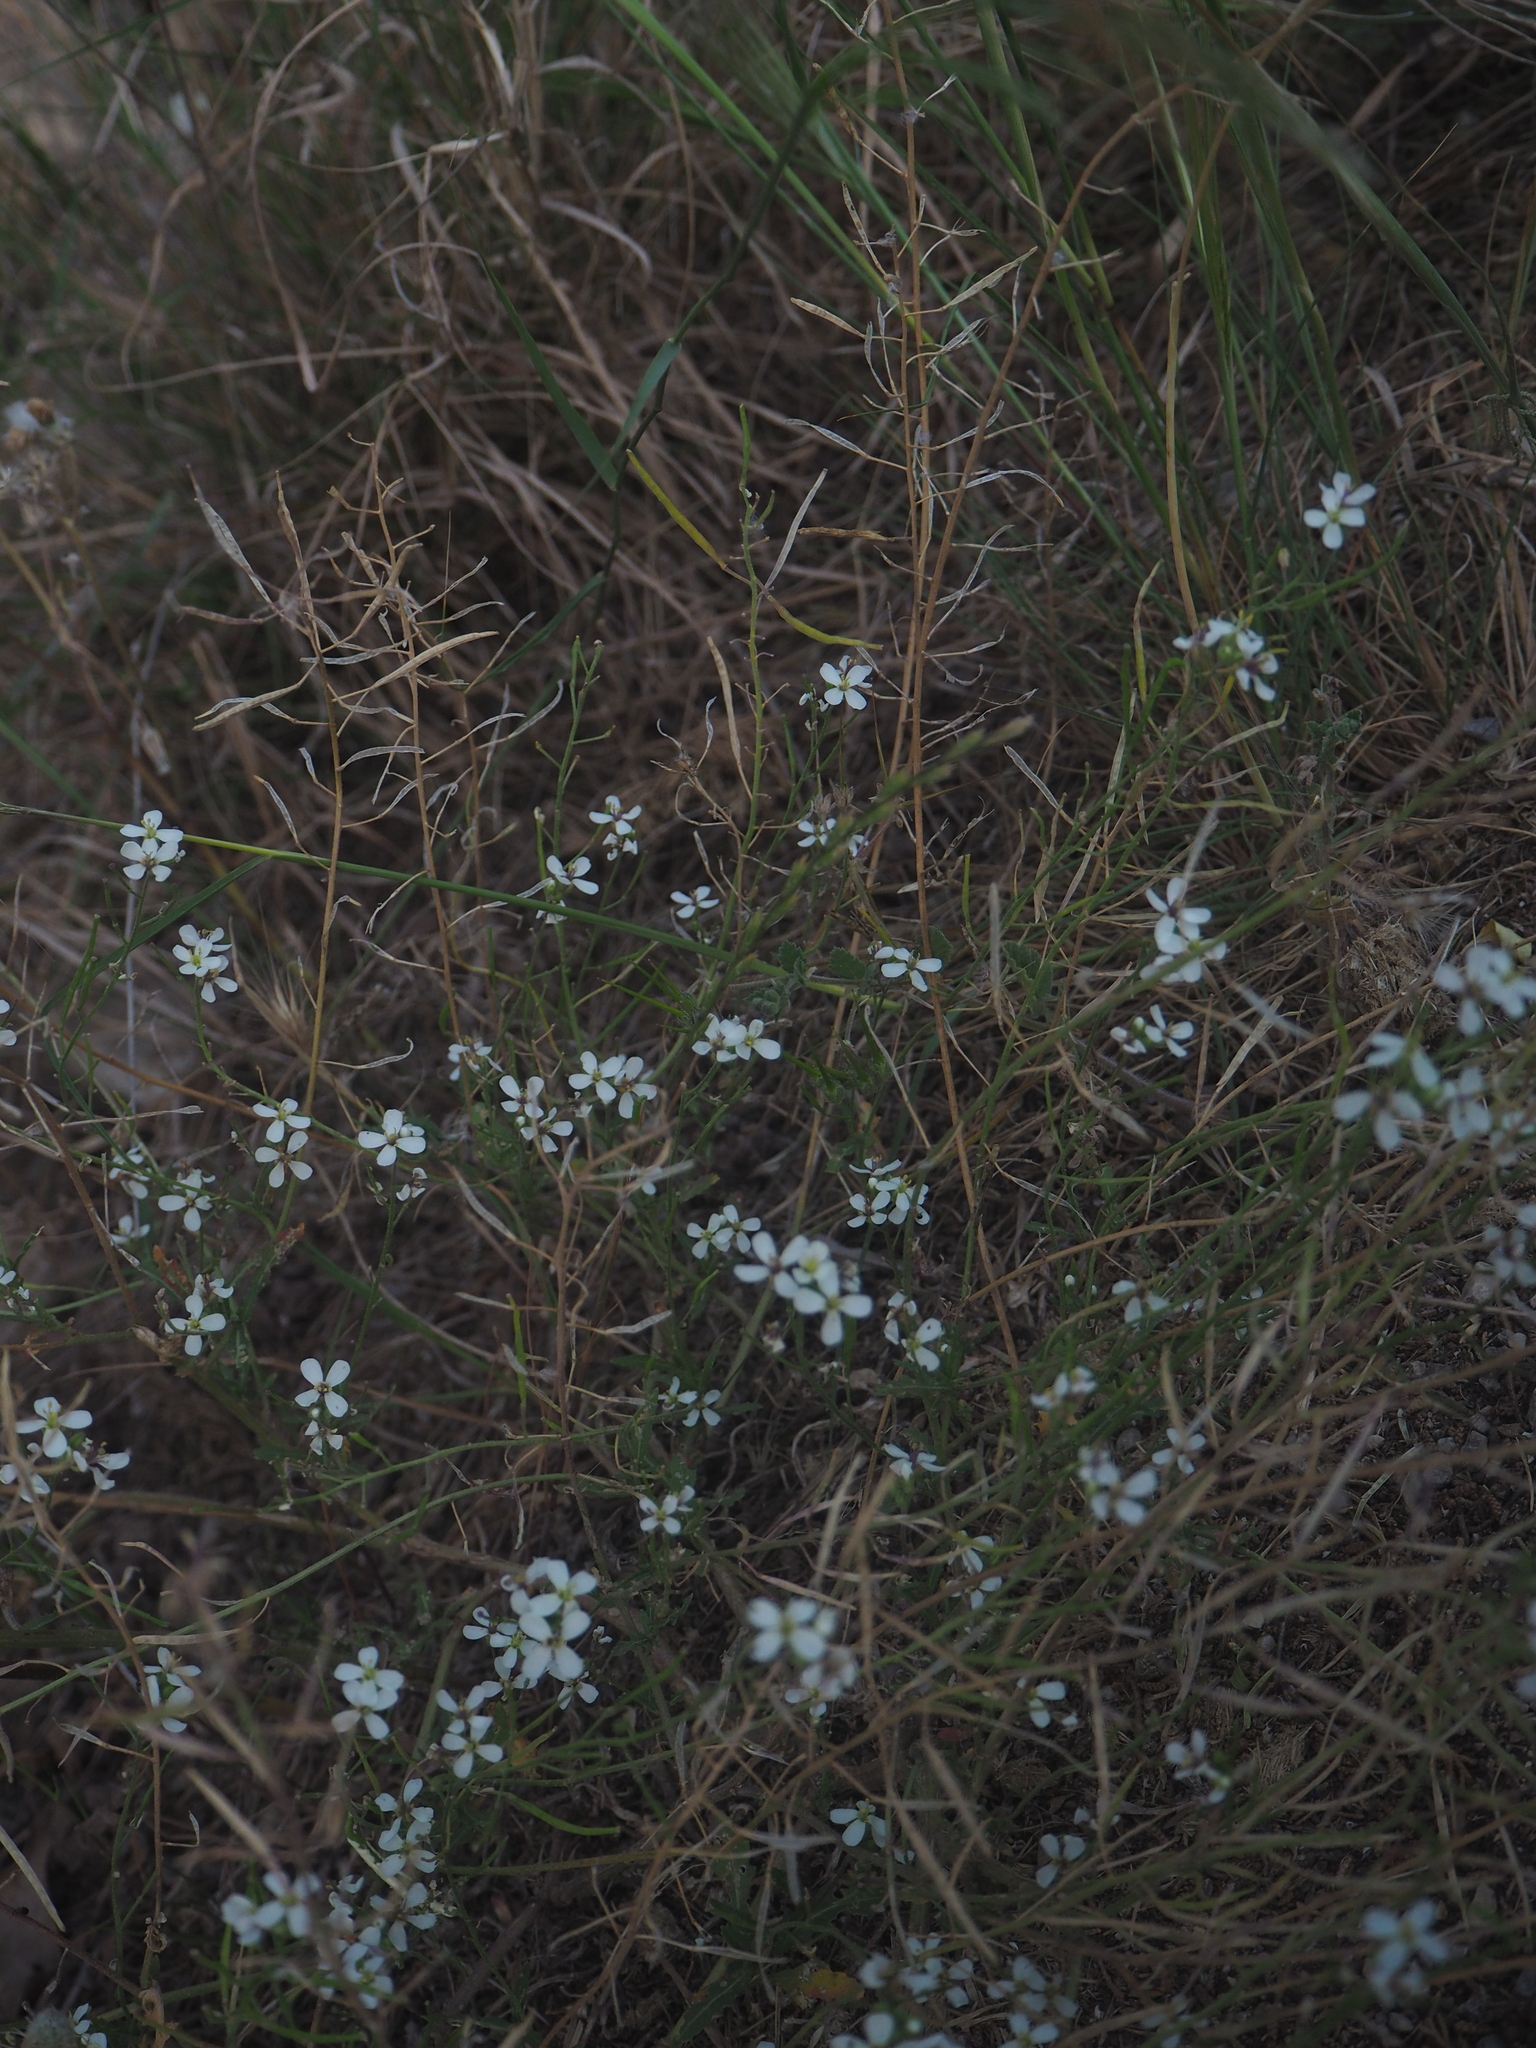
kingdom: Plantae
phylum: Tracheophyta
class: Magnoliopsida
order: Brassicales
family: Brassicaceae
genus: Diplotaxis
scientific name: Diplotaxis erucoides
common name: White rocket
